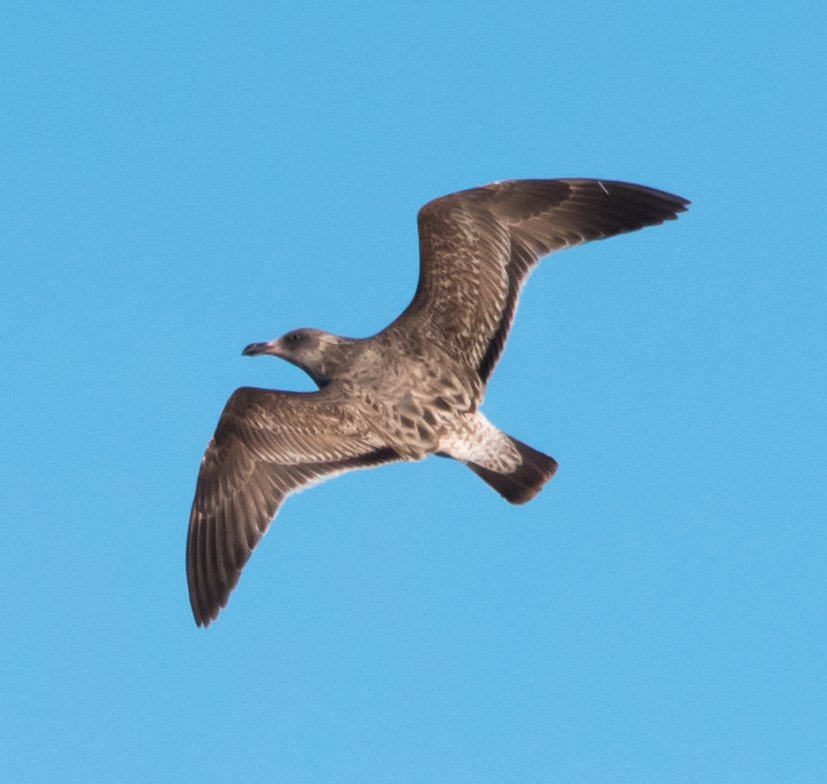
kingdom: Animalia
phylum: Chordata
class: Aves
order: Charadriiformes
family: Laridae
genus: Larus
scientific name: Larus occidentalis
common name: Western gull
